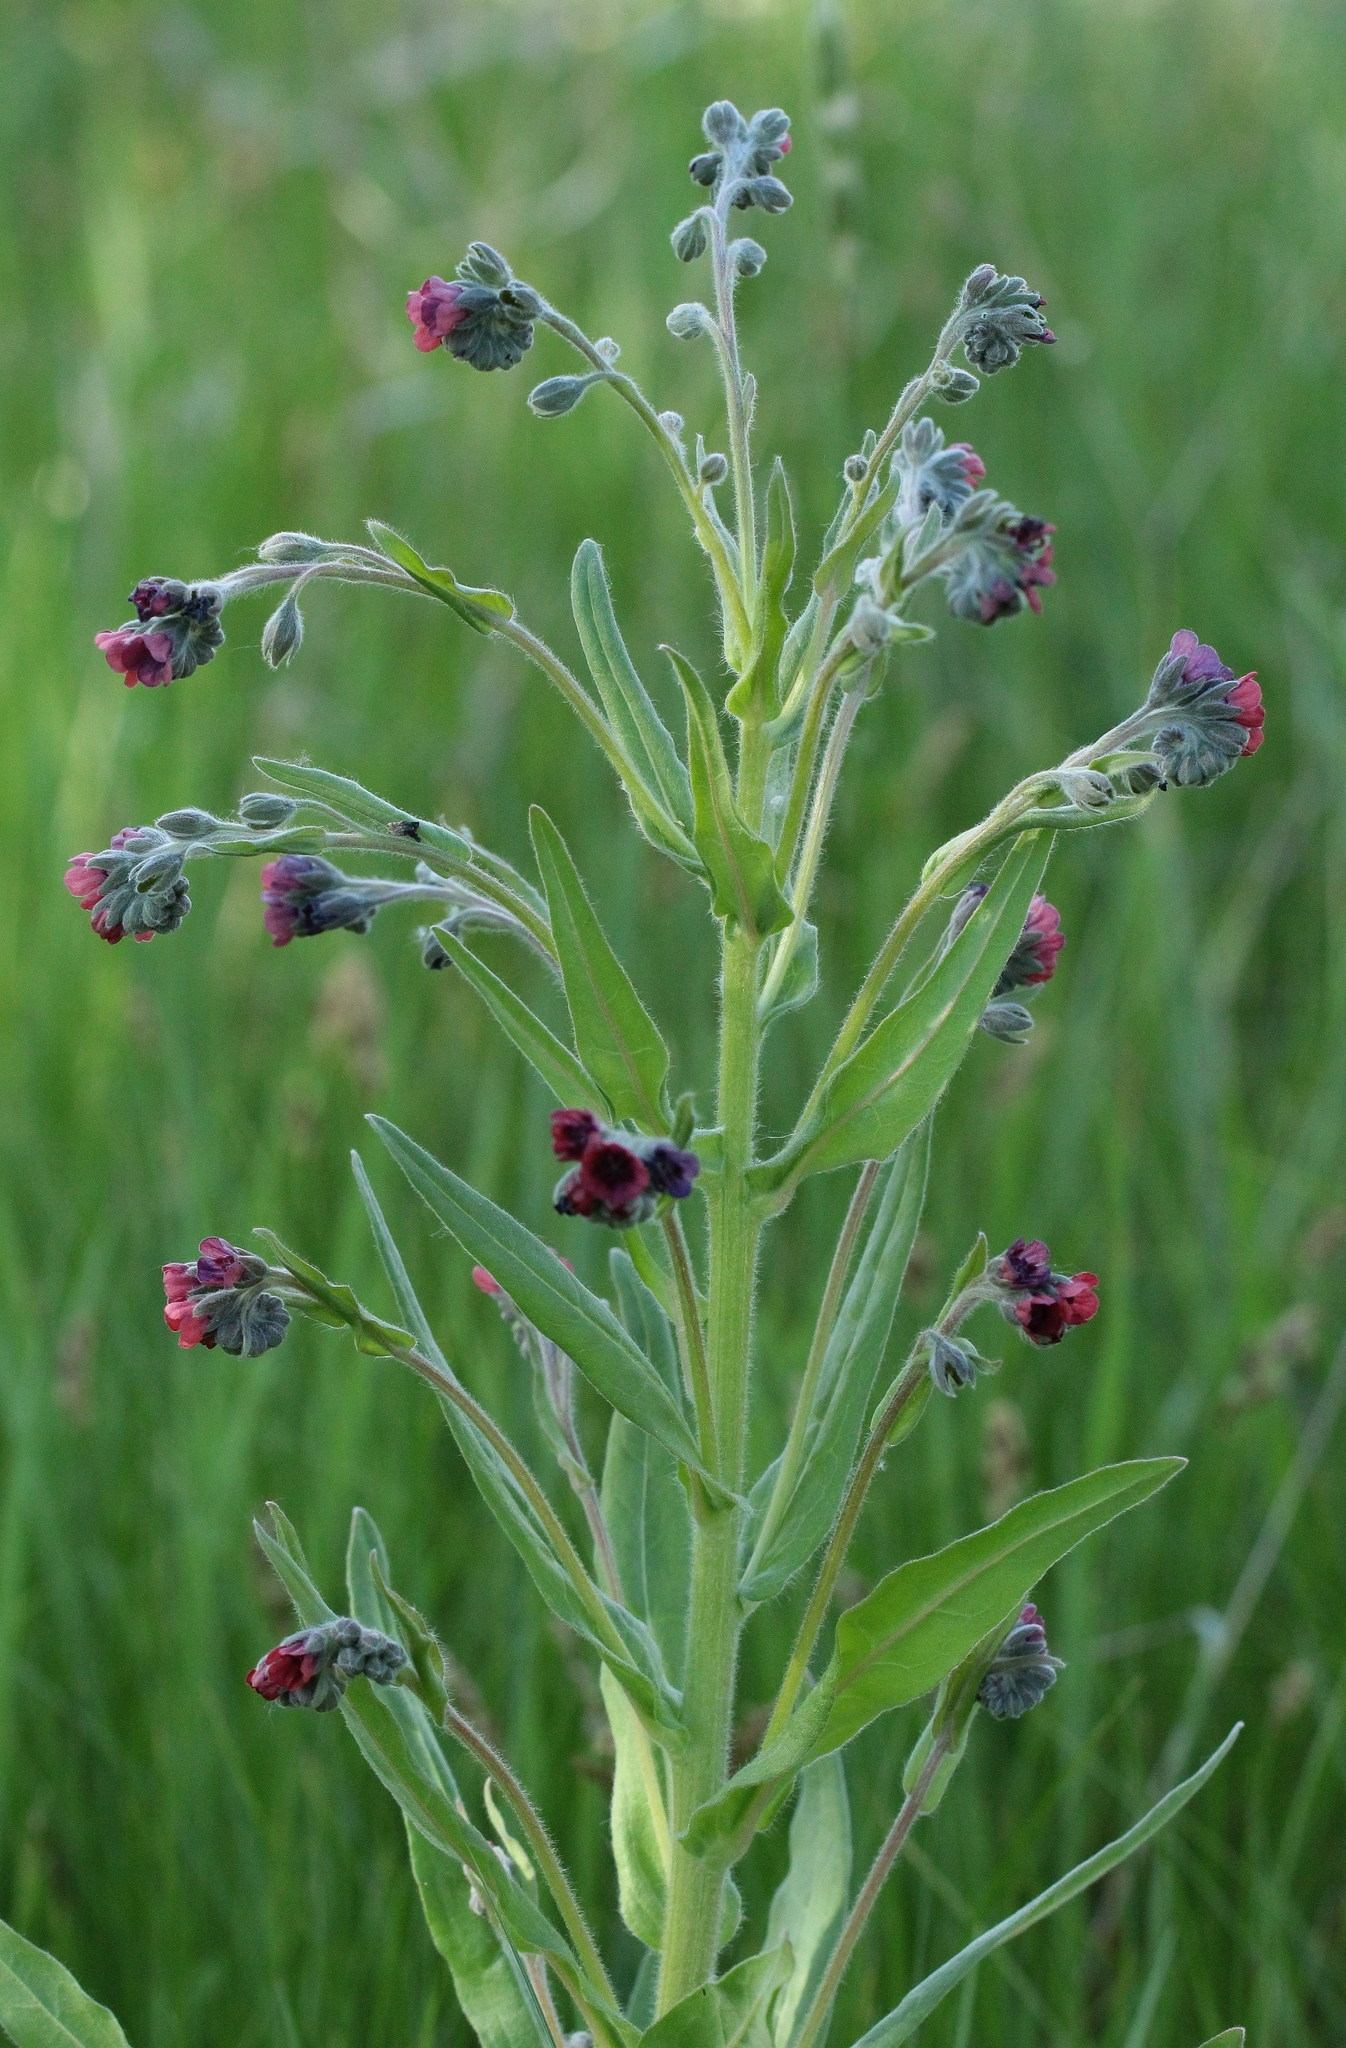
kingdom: Plantae
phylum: Tracheophyta
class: Magnoliopsida
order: Boraginales
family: Boraginaceae
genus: Cynoglossum
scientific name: Cynoglossum officinale
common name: Hound's-tongue
